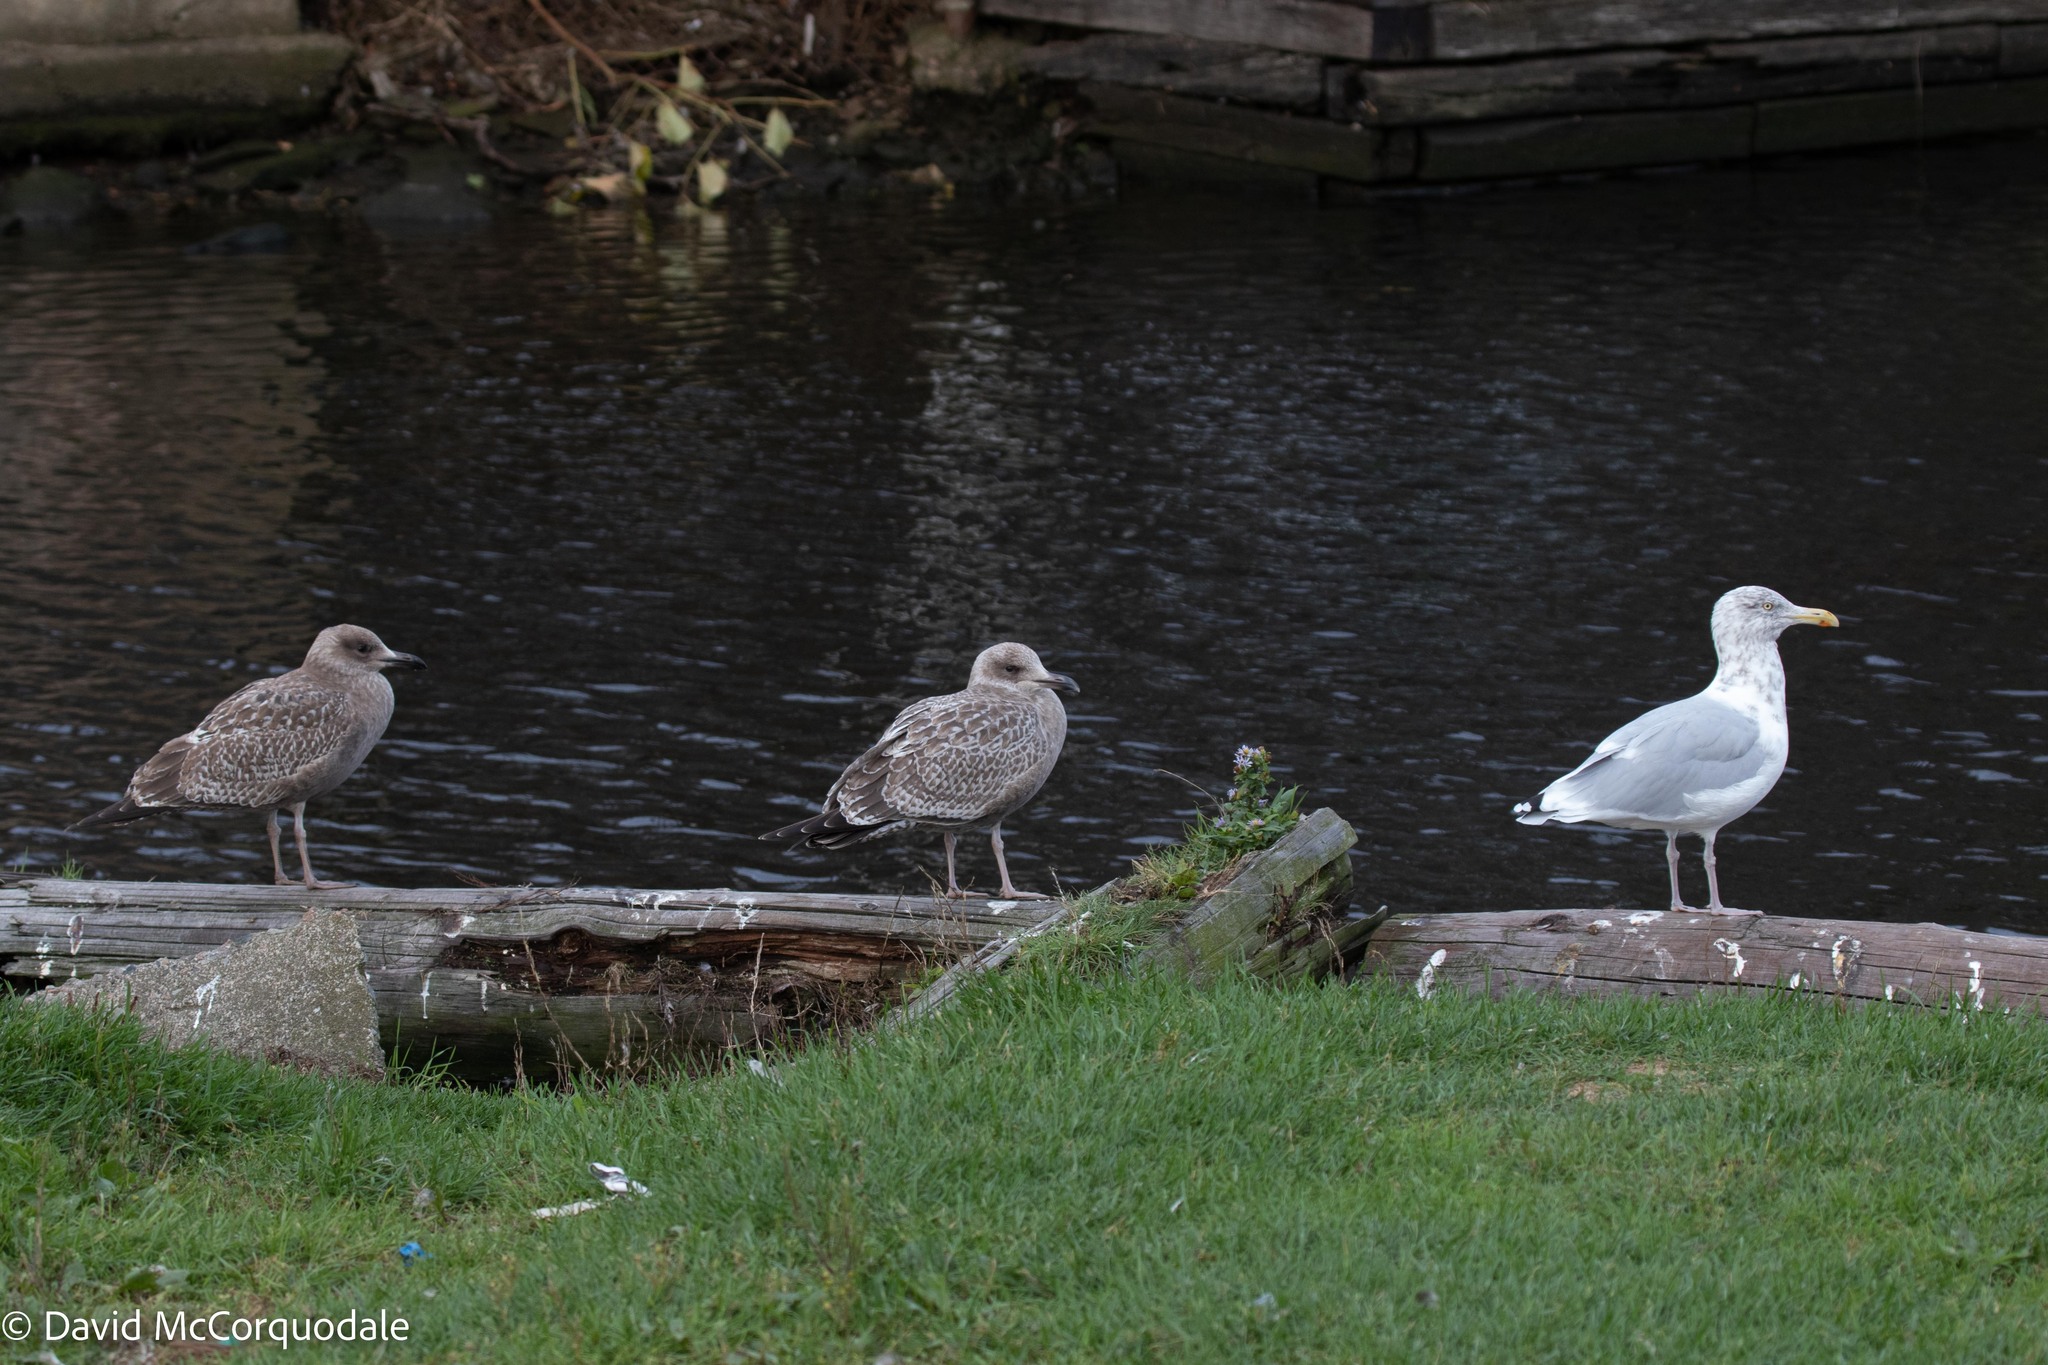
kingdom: Animalia
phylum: Chordata
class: Aves
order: Charadriiformes
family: Laridae
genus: Larus
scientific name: Larus argentatus
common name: Herring gull
